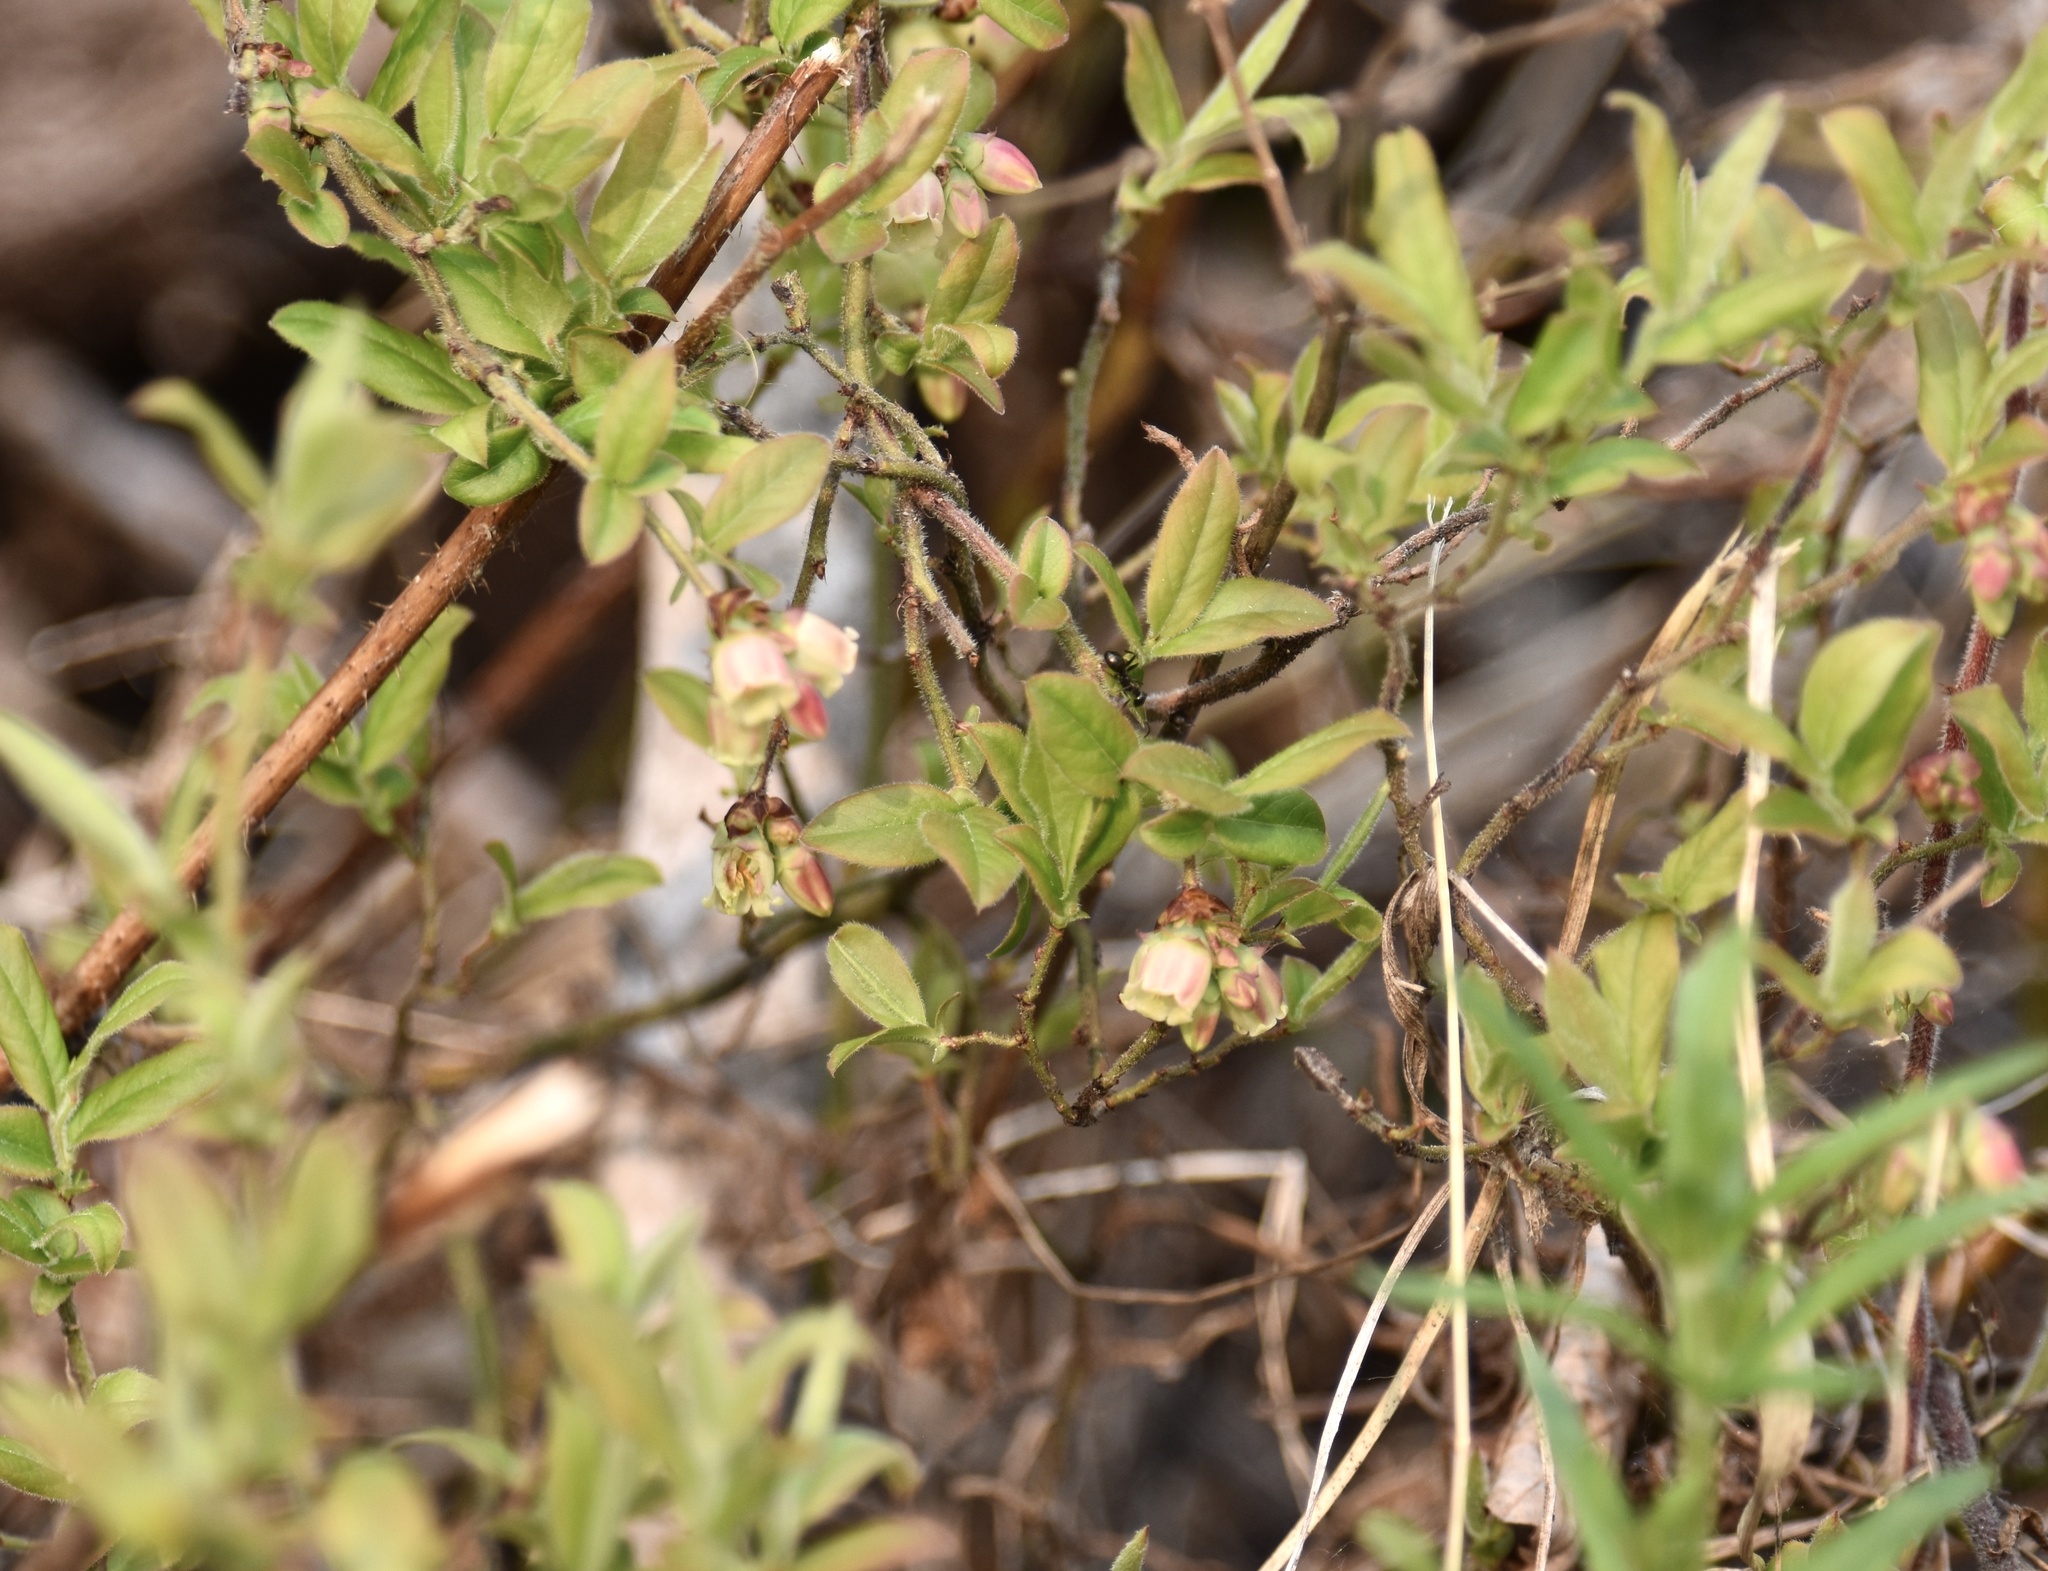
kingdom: Plantae
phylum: Tracheophyta
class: Magnoliopsida
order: Ericales
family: Ericaceae
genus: Vaccinium
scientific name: Vaccinium myrtilloides
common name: Canada blueberry
